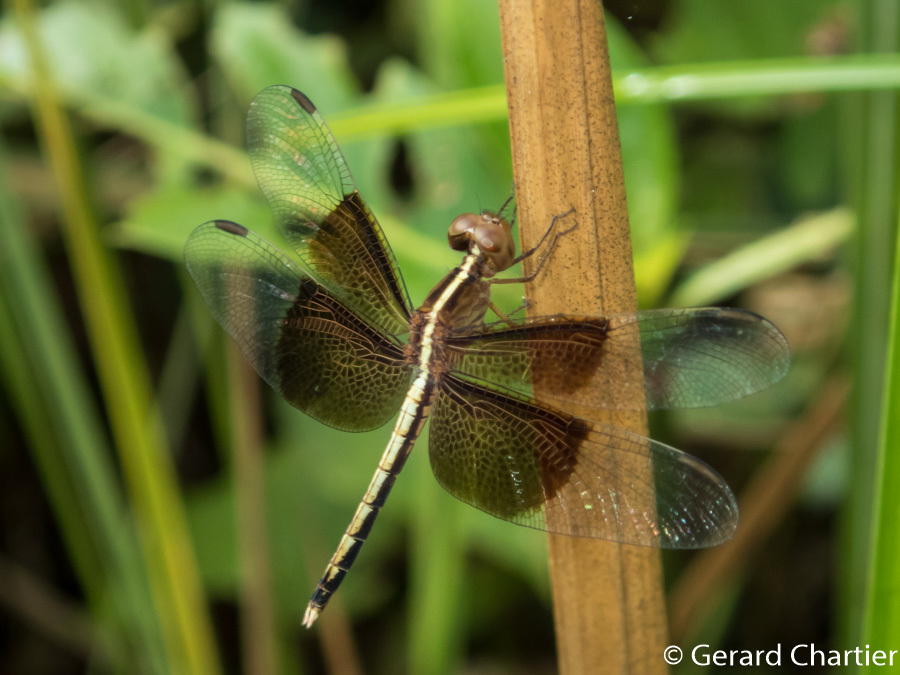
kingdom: Animalia
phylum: Arthropoda
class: Insecta
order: Odonata
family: Libellulidae
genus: Neurothemis
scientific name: Neurothemis tullia
